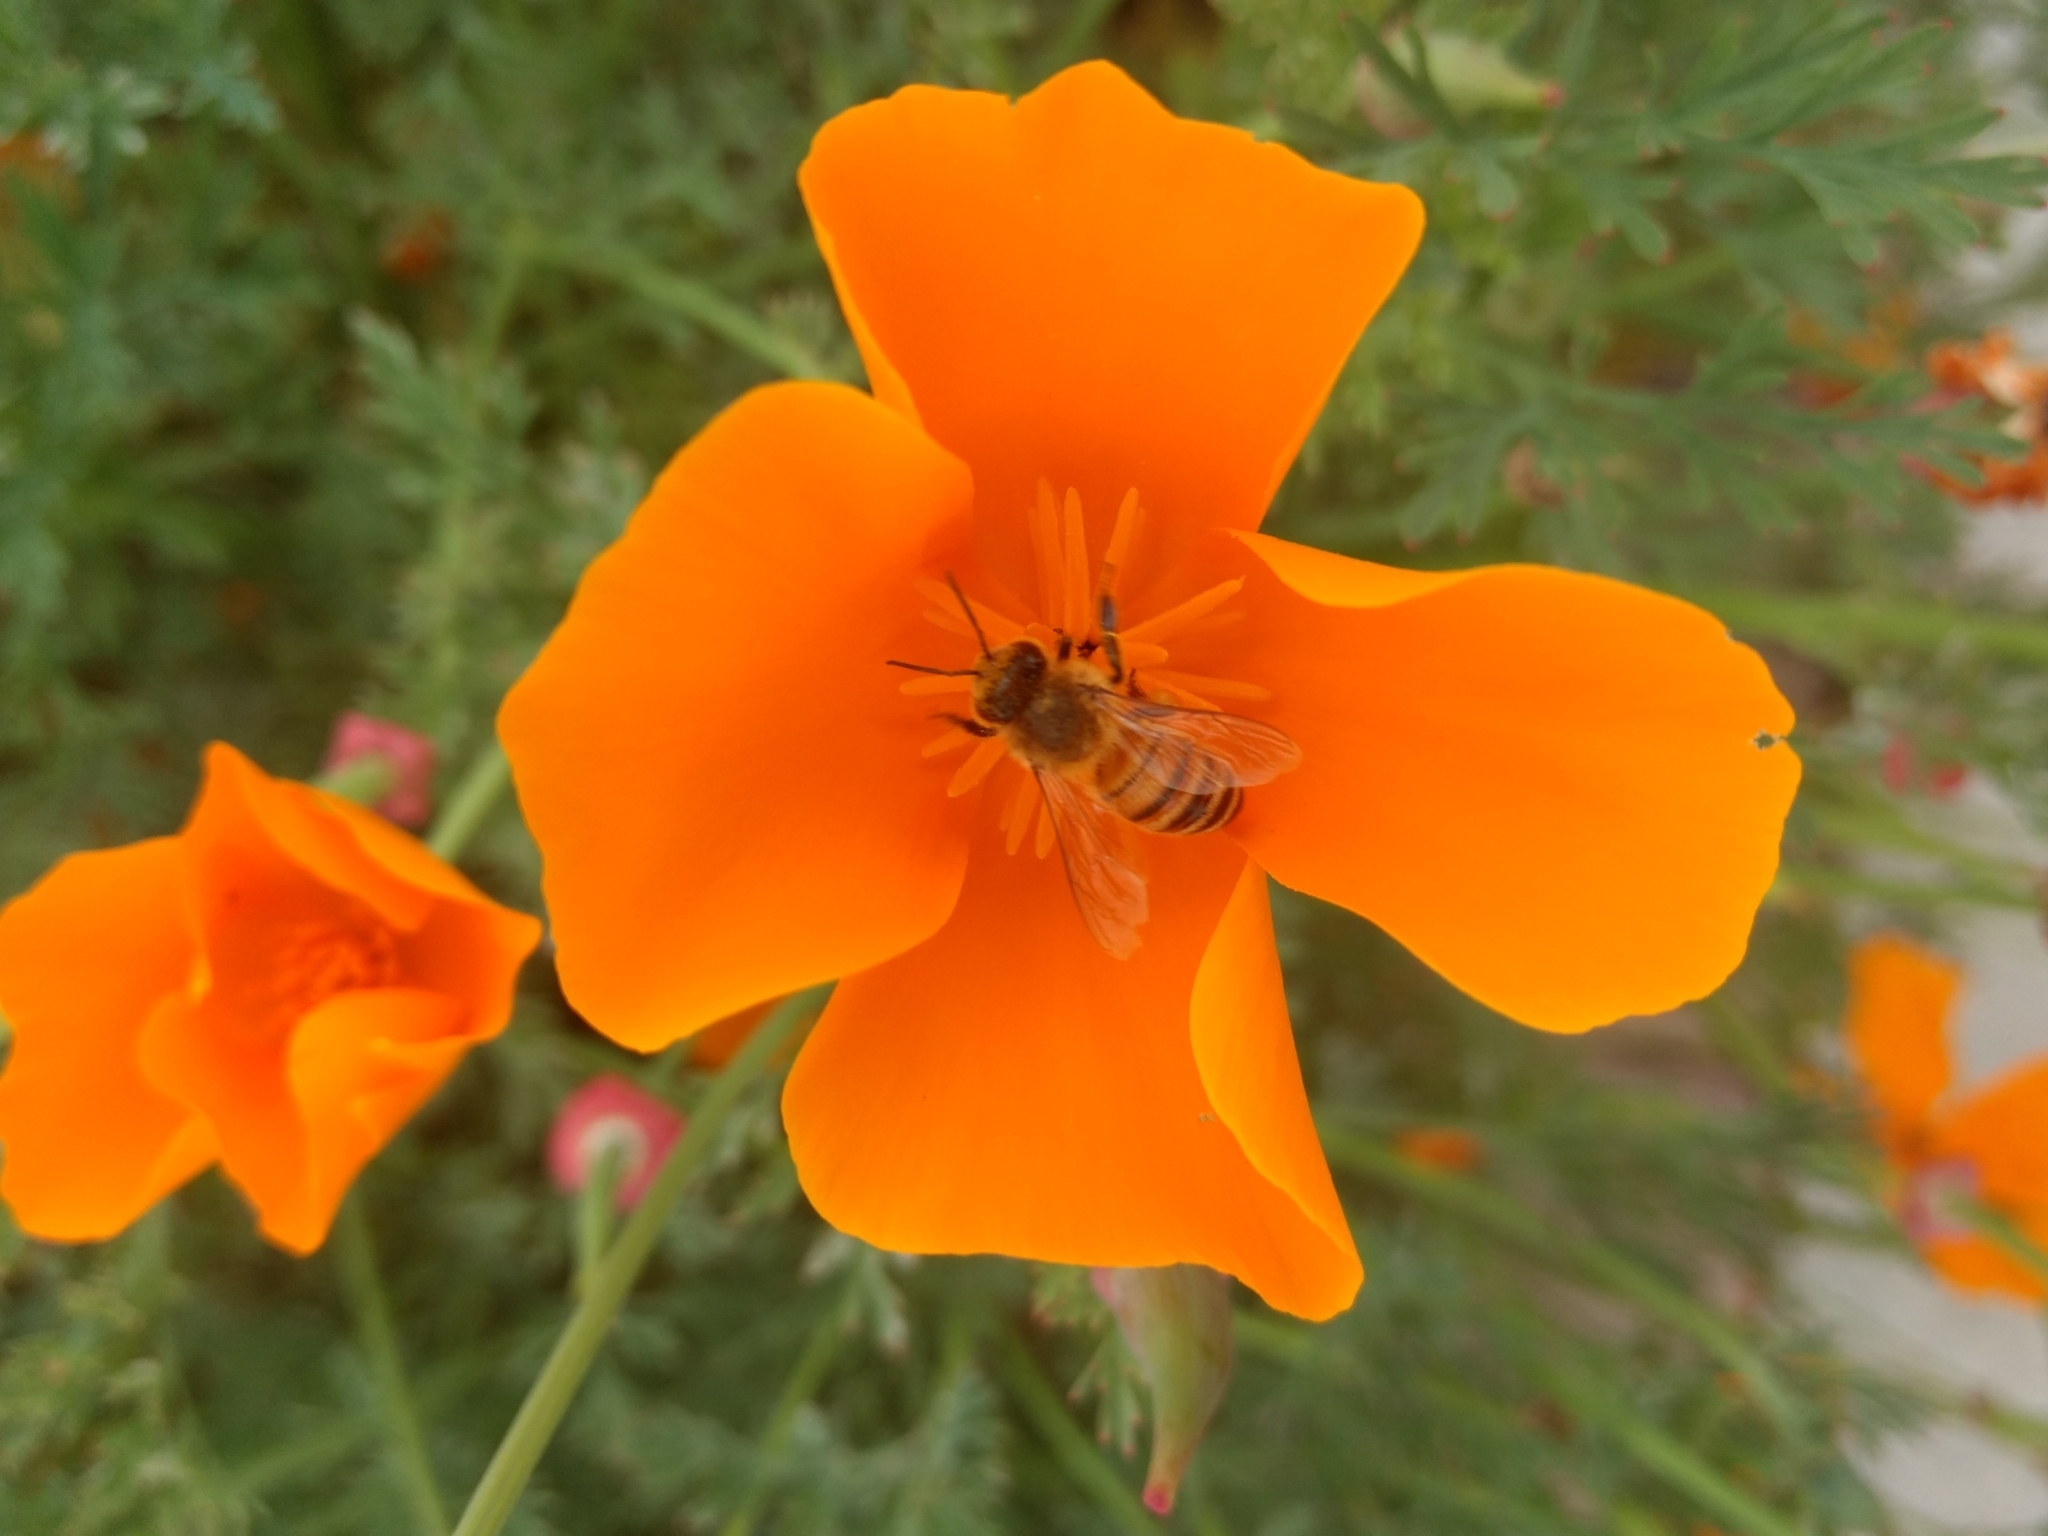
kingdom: Animalia
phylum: Arthropoda
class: Insecta
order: Hymenoptera
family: Apidae
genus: Apis
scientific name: Apis mellifera
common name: Honey bee
